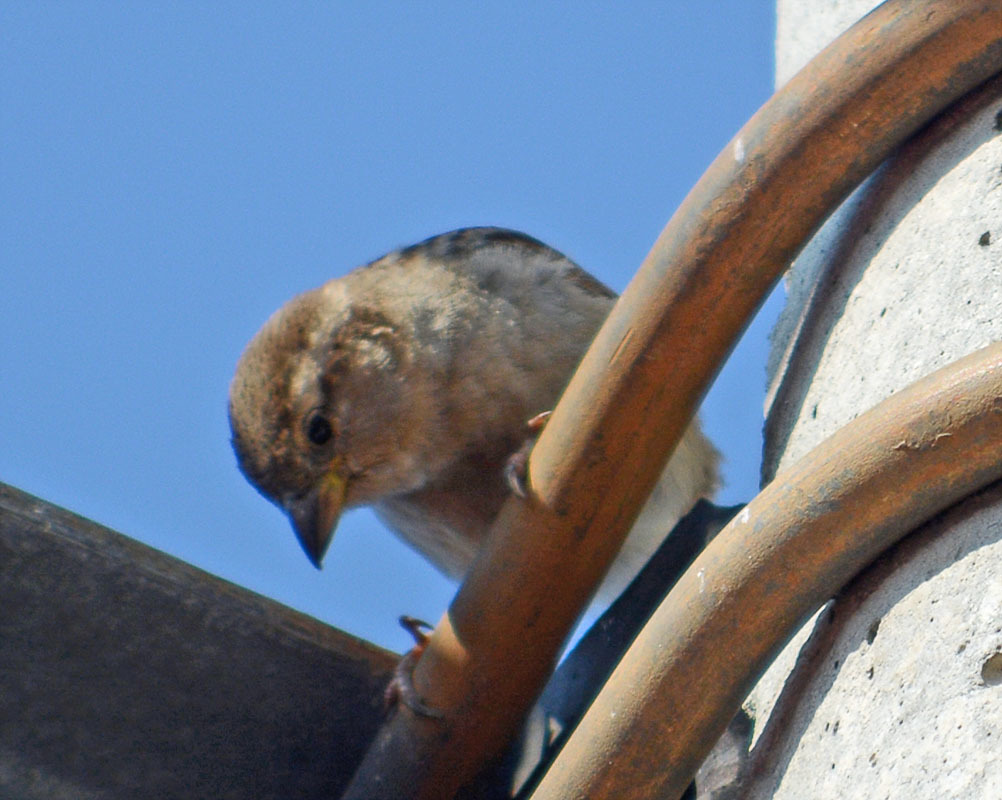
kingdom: Animalia
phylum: Chordata
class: Aves
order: Passeriformes
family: Passeridae
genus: Passer
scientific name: Passer domesticus
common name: House sparrow
